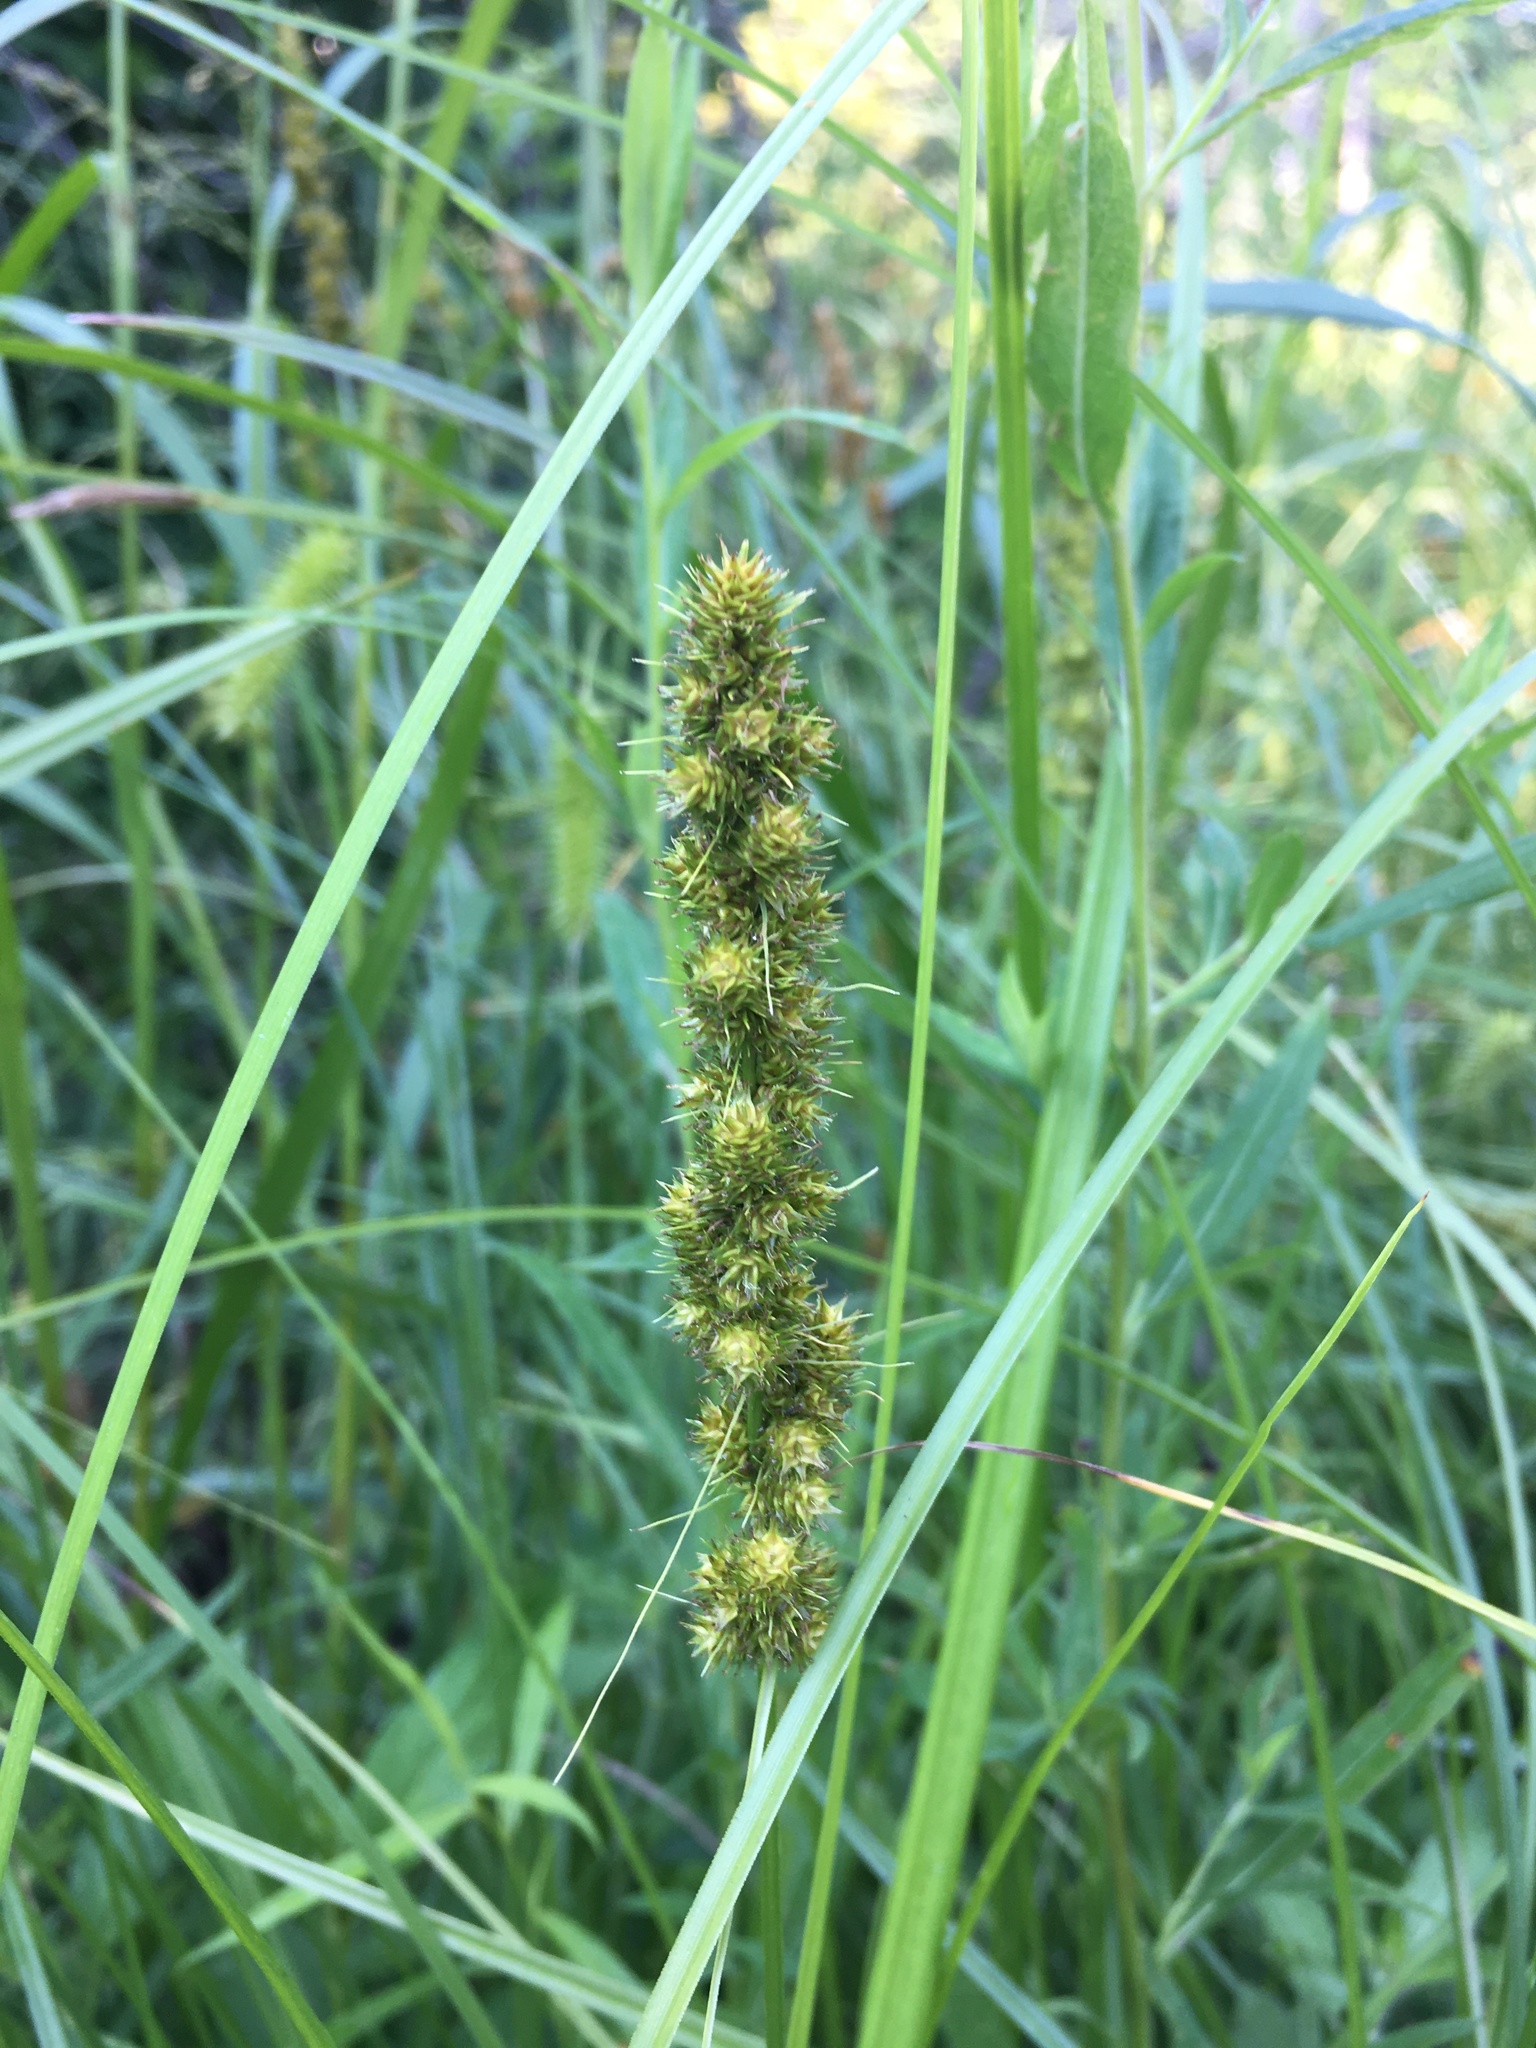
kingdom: Plantae
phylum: Tracheophyta
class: Liliopsida
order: Poales
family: Cyperaceae
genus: Carex
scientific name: Carex vulpinoidea
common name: American fox-sedge
